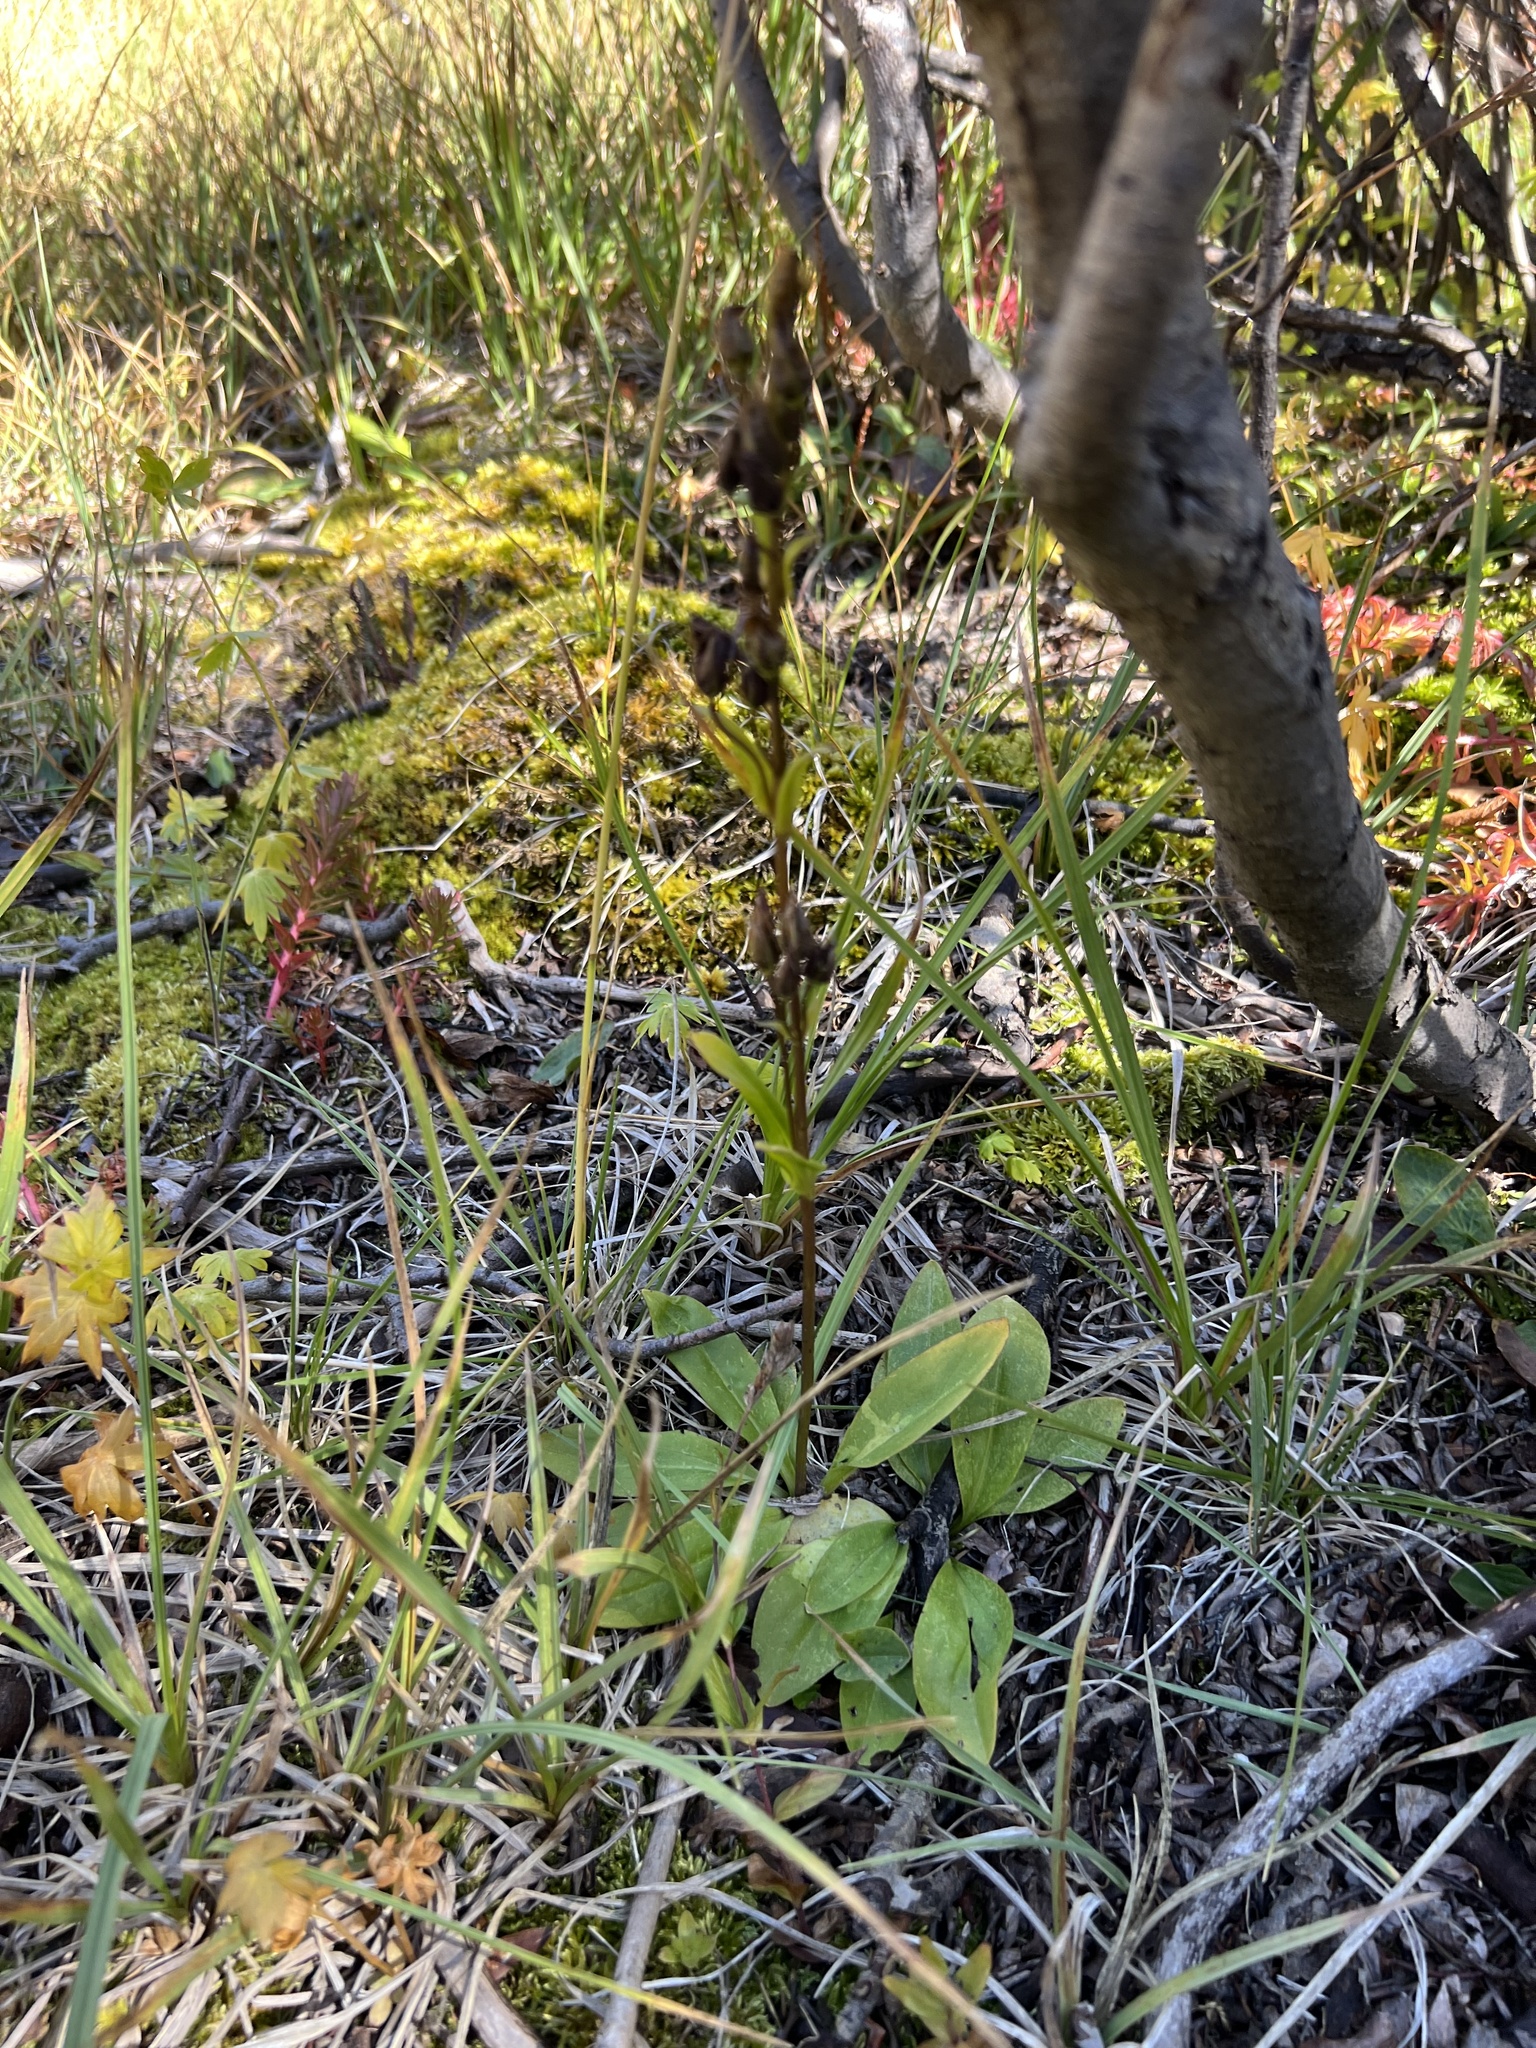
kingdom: Plantae
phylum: Tracheophyta
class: Magnoliopsida
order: Gentianales
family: Gentianaceae
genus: Swertia
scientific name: Swertia perennis
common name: Alpine bog swertia
